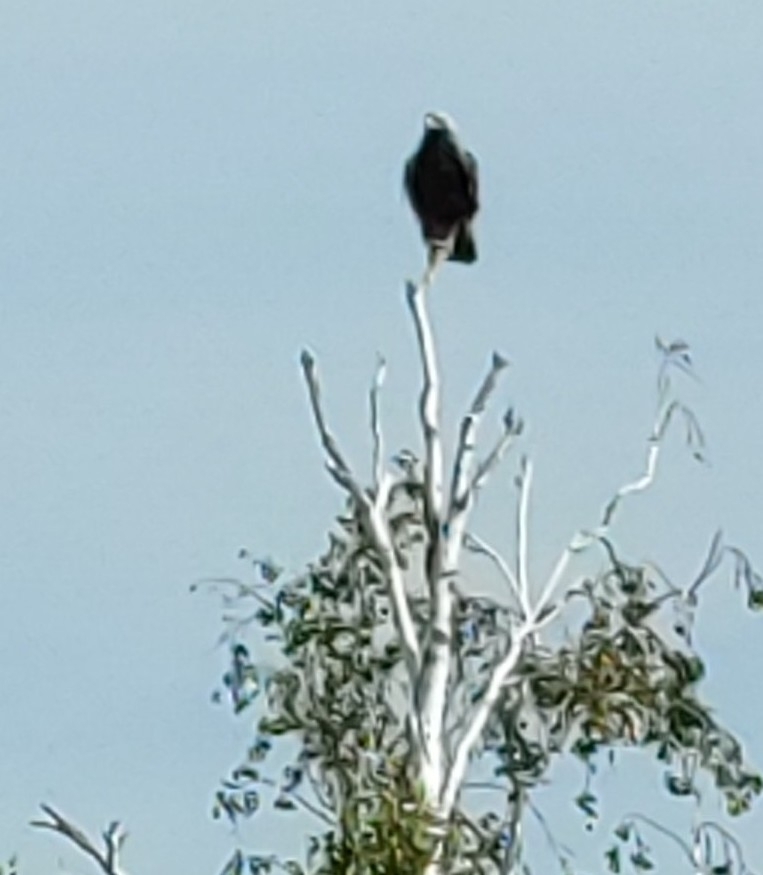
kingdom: Animalia
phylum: Chordata
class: Aves
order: Accipitriformes
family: Accipitridae
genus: Aquila
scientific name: Aquila heliaca
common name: Eastern imperial eagle
